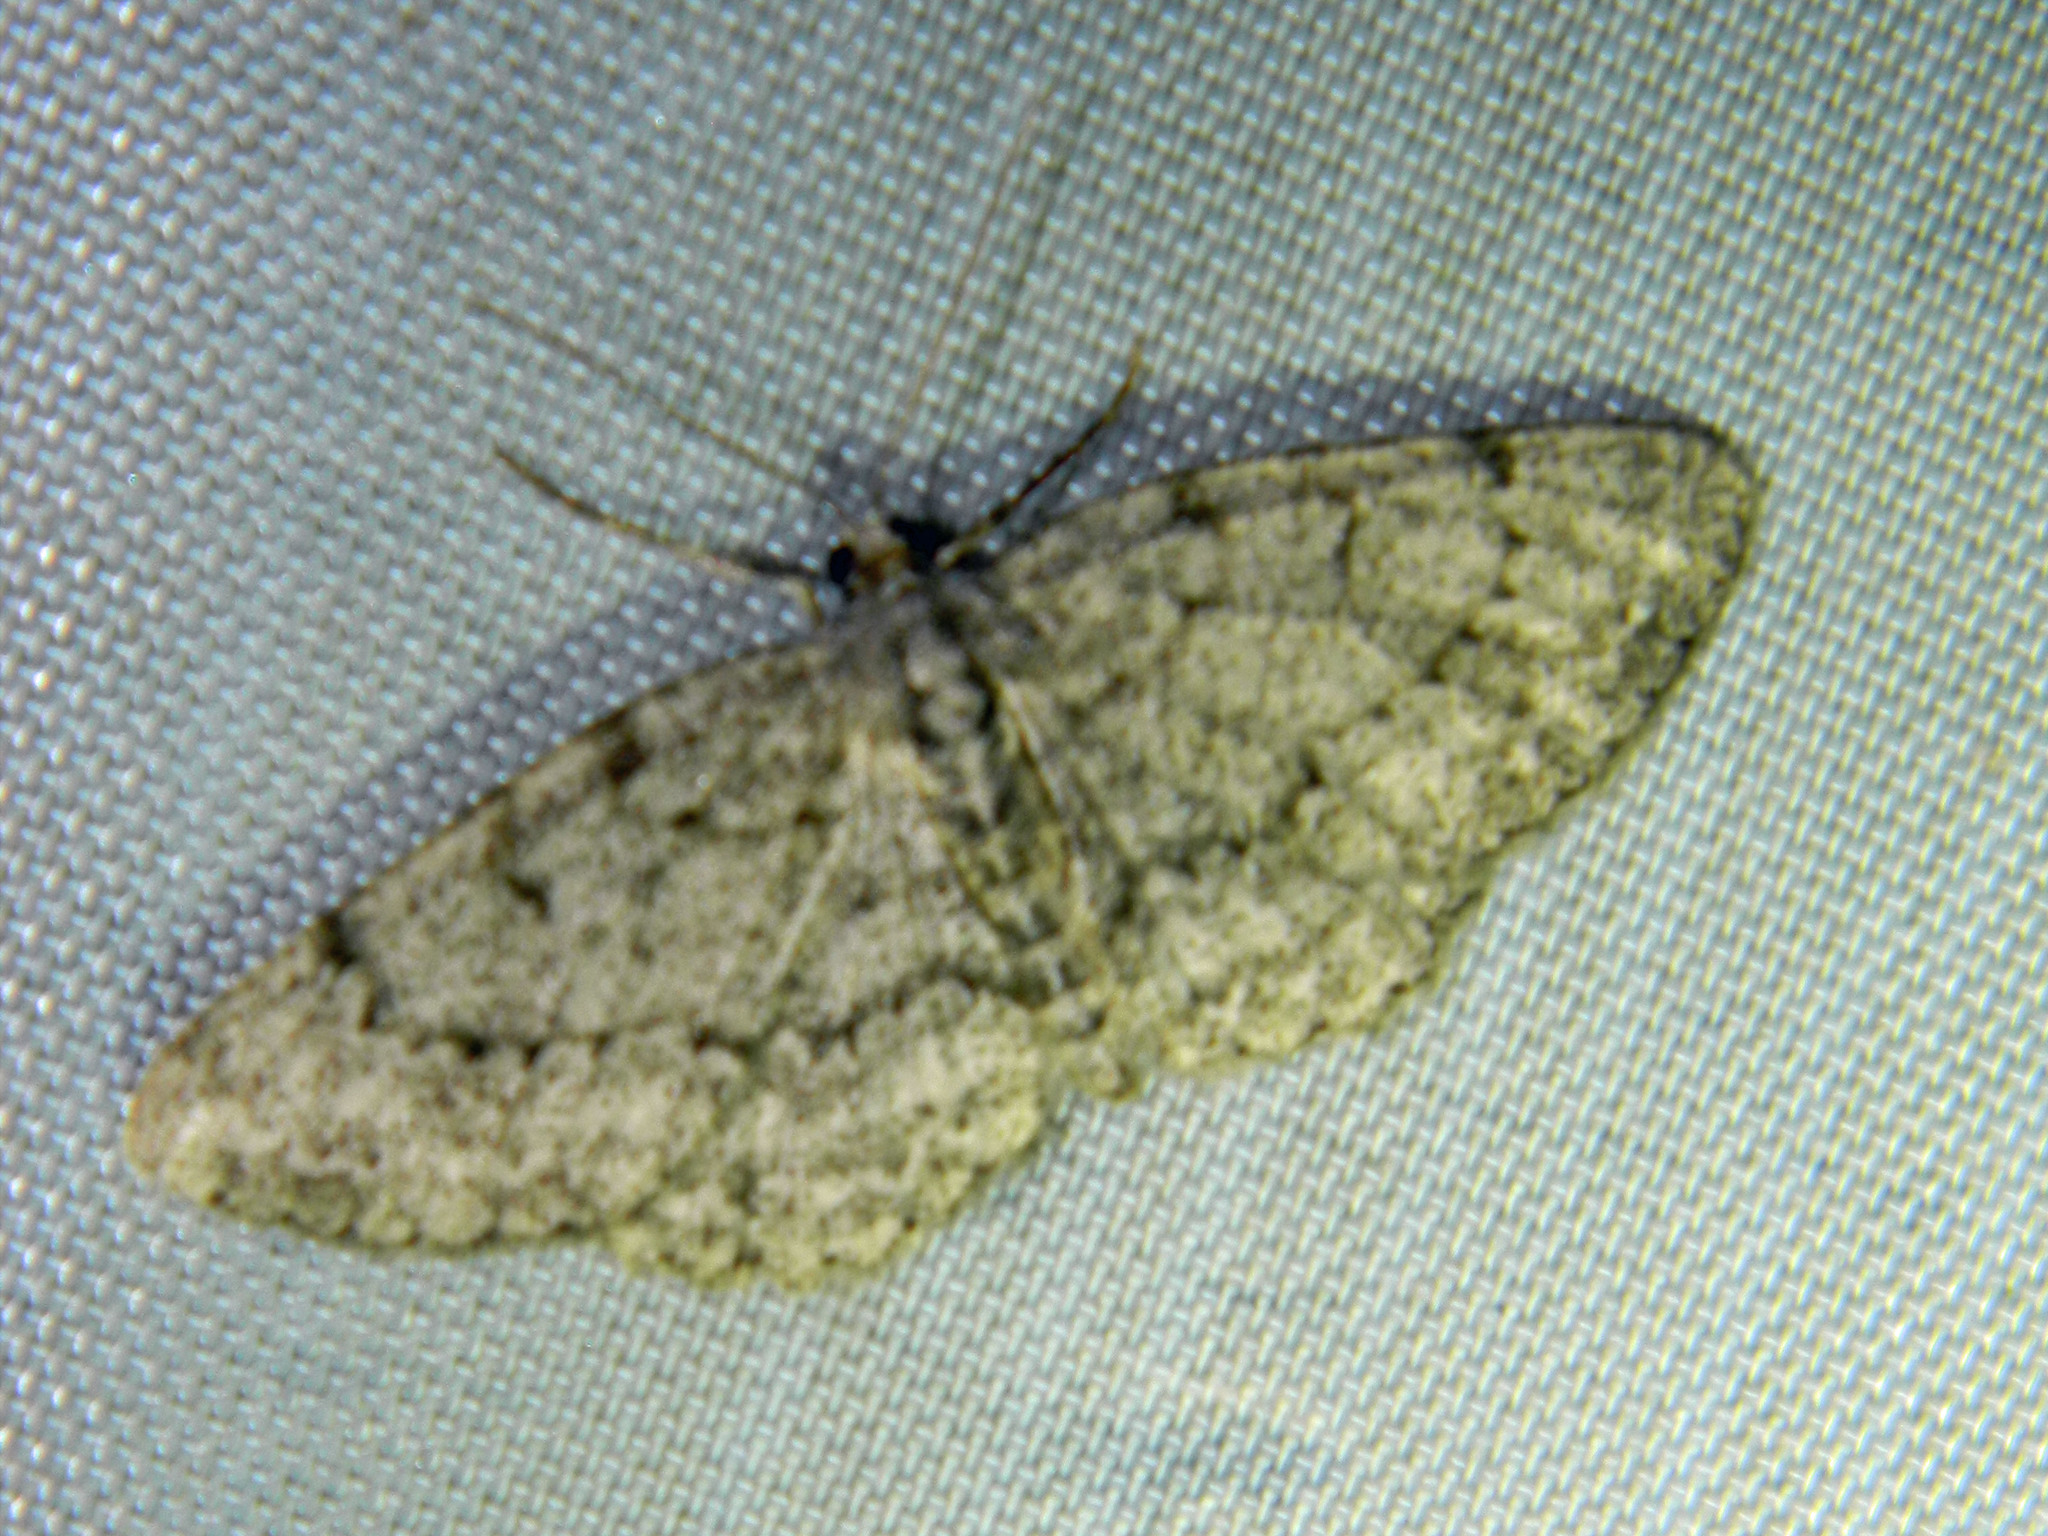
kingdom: Animalia
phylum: Arthropoda
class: Insecta
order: Lepidoptera
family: Geometridae
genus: Protoboarmia
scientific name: Protoboarmia porcelaria
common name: Porcelain gray
